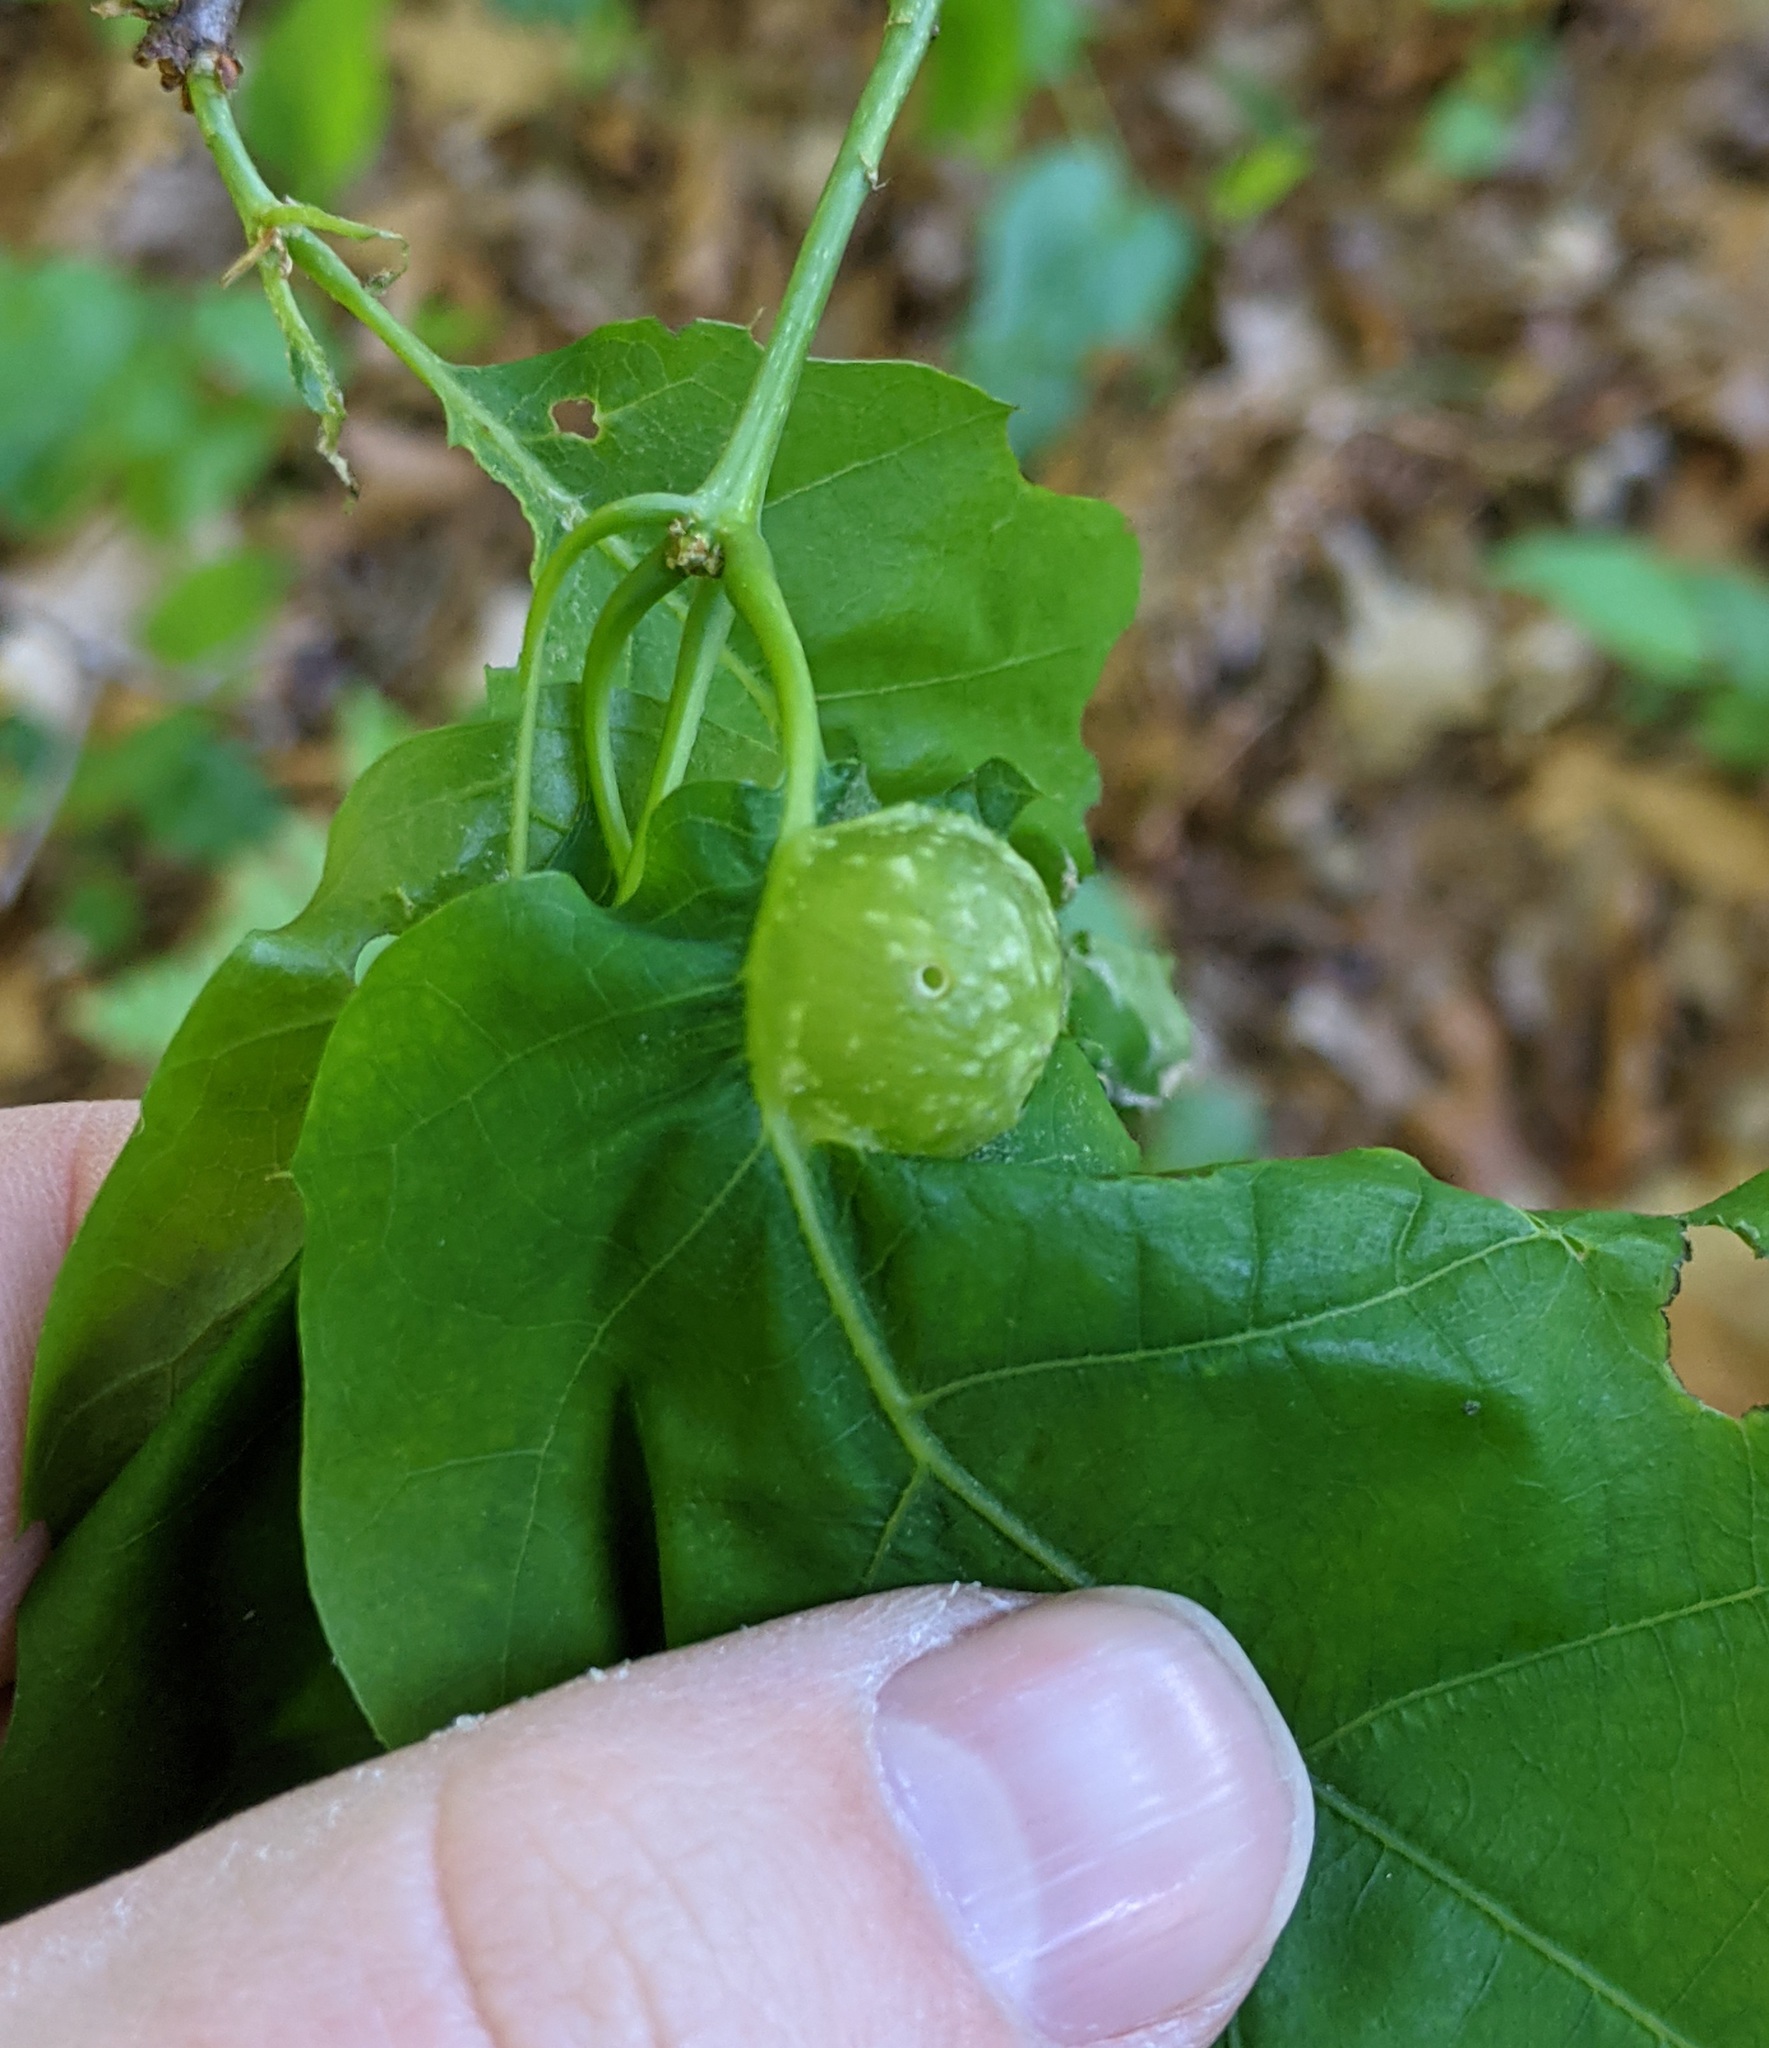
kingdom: Animalia
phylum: Arthropoda
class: Insecta
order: Hymenoptera
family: Cynipidae
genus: Dryocosmus
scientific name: Dryocosmus quercuspalustris
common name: Succulent oak gall wasp
